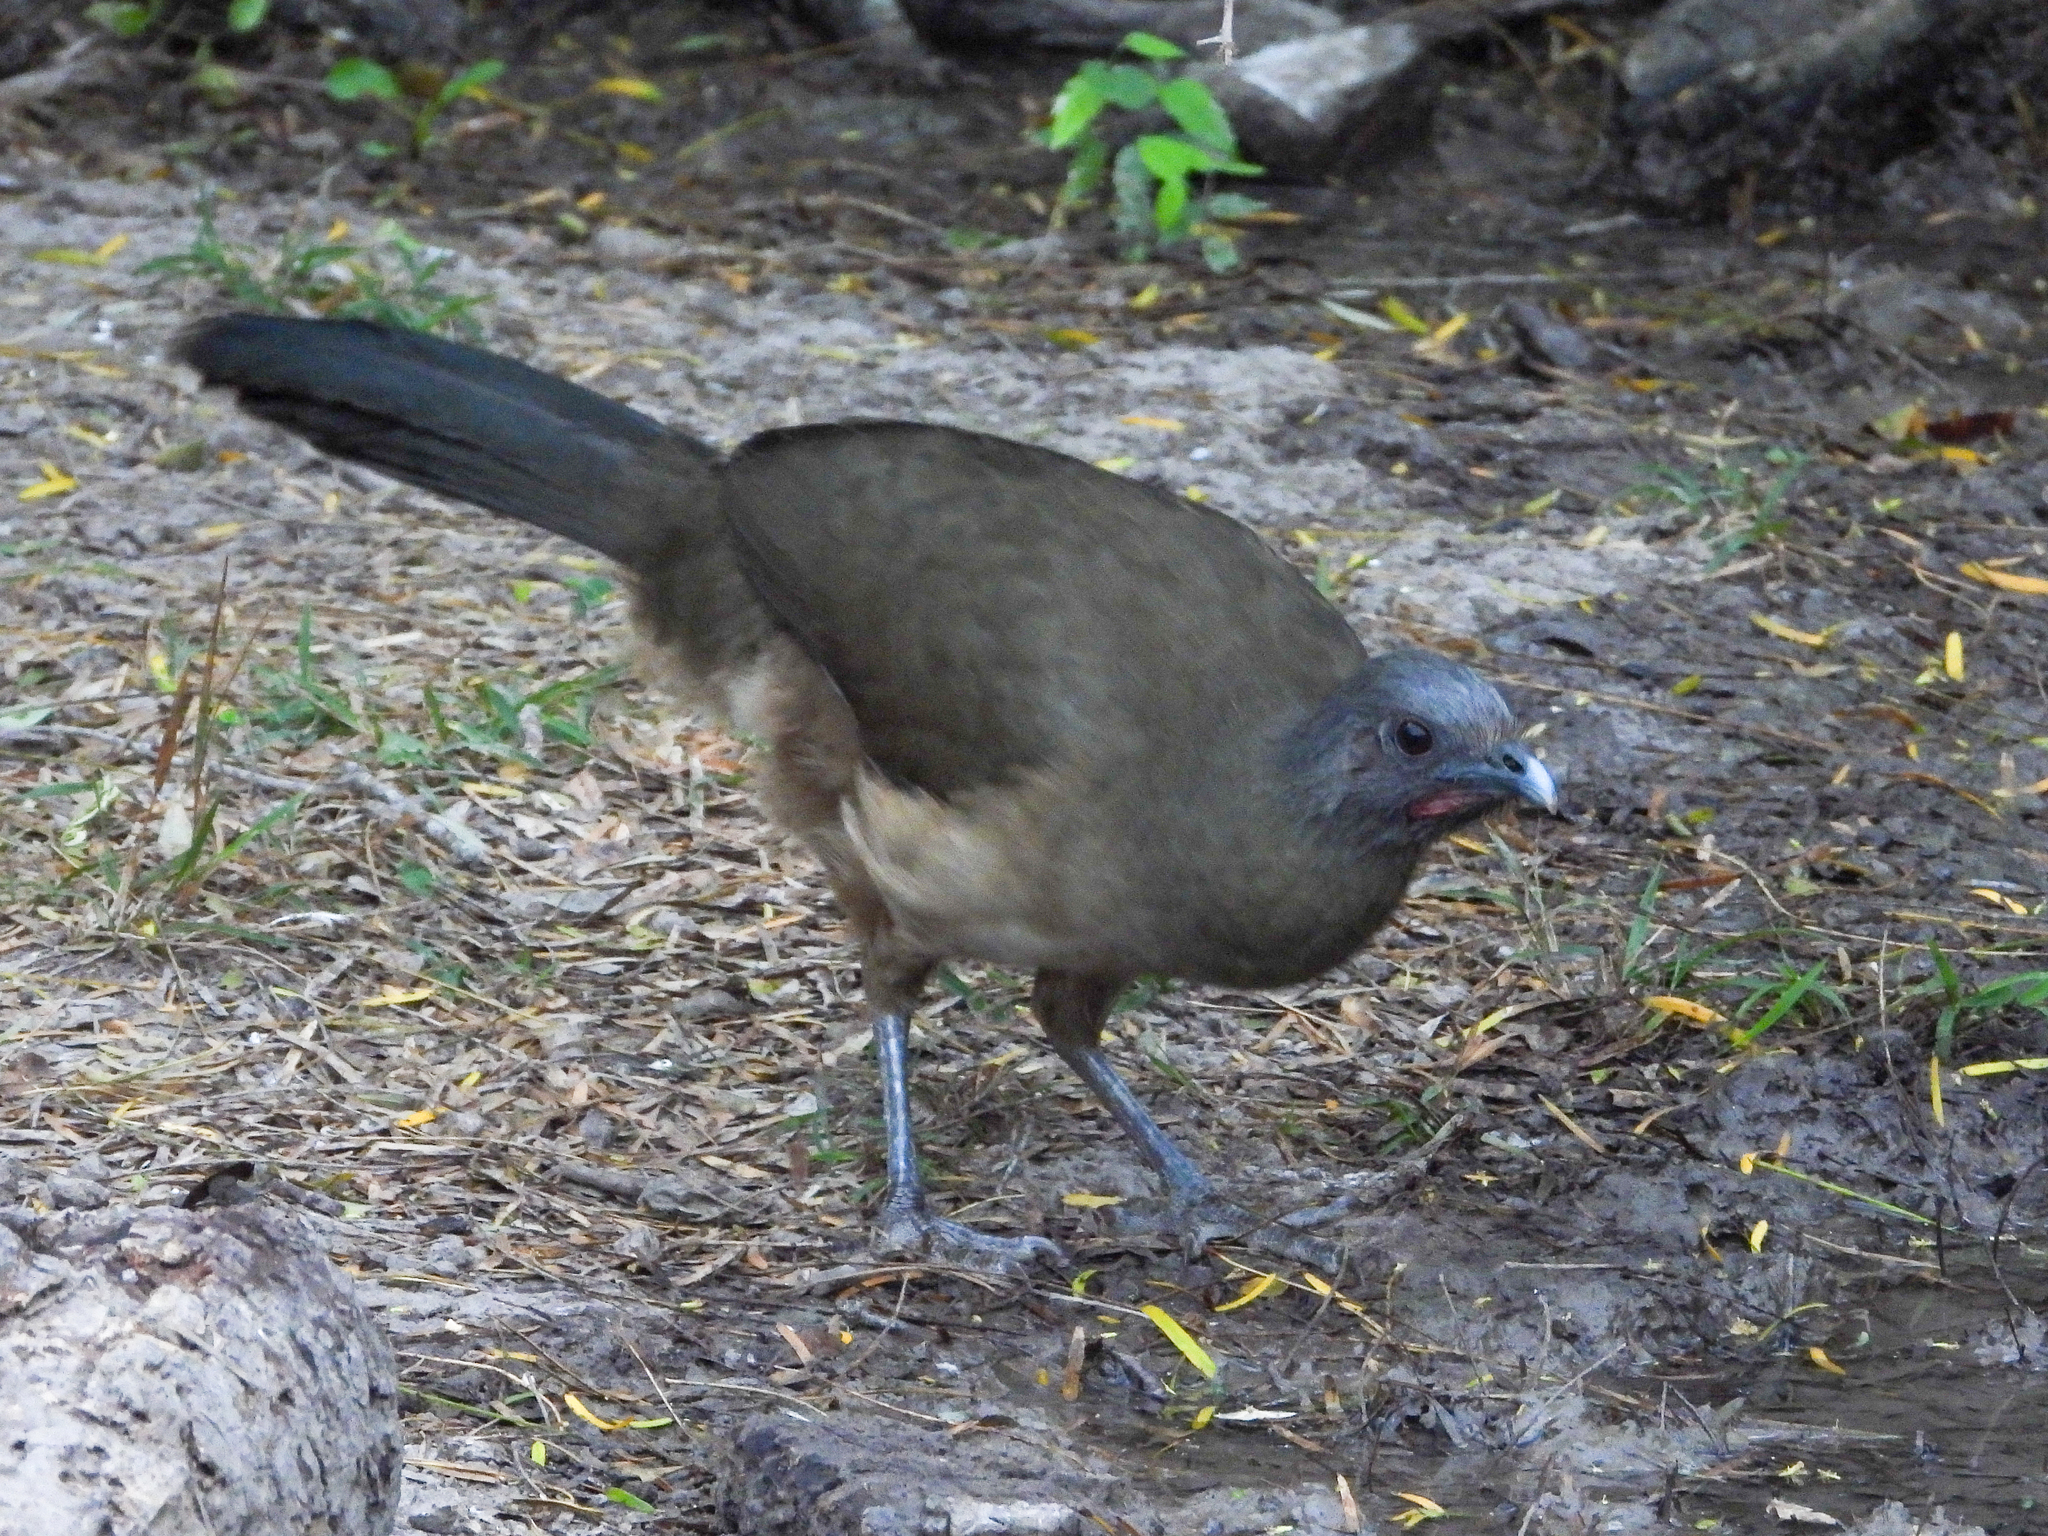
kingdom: Animalia
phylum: Chordata
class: Aves
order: Galliformes
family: Cracidae
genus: Ortalis
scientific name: Ortalis vetula
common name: Plain chachalaca
